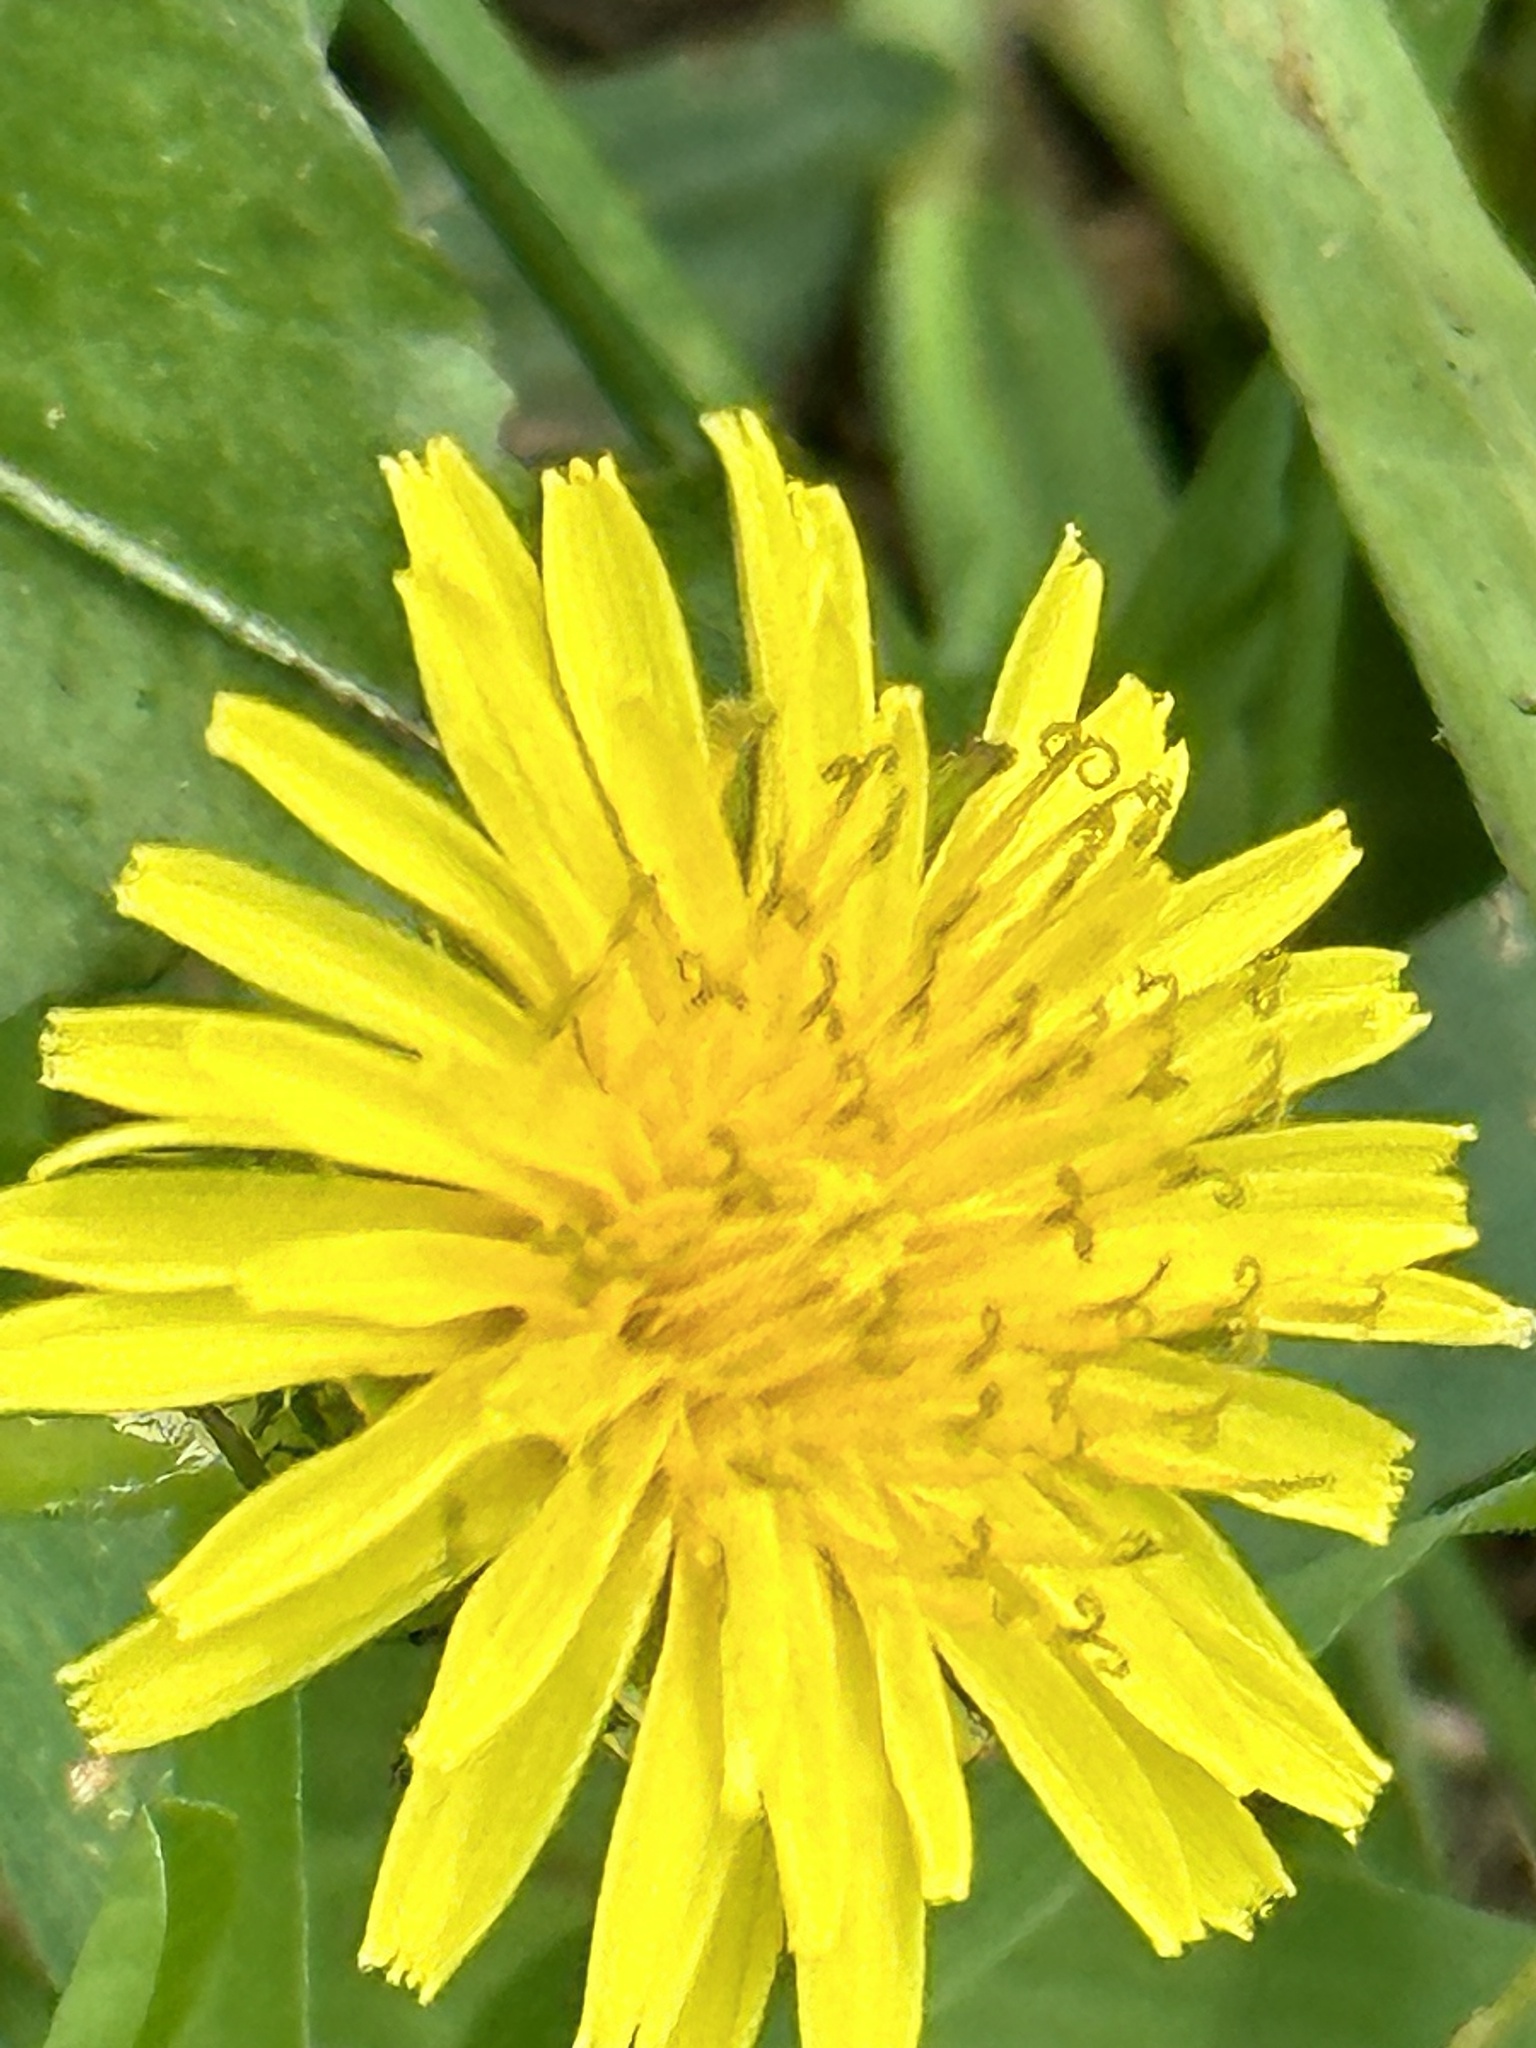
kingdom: Plantae
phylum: Tracheophyta
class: Magnoliopsida
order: Asterales
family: Asteraceae
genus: Taraxacum
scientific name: Taraxacum
